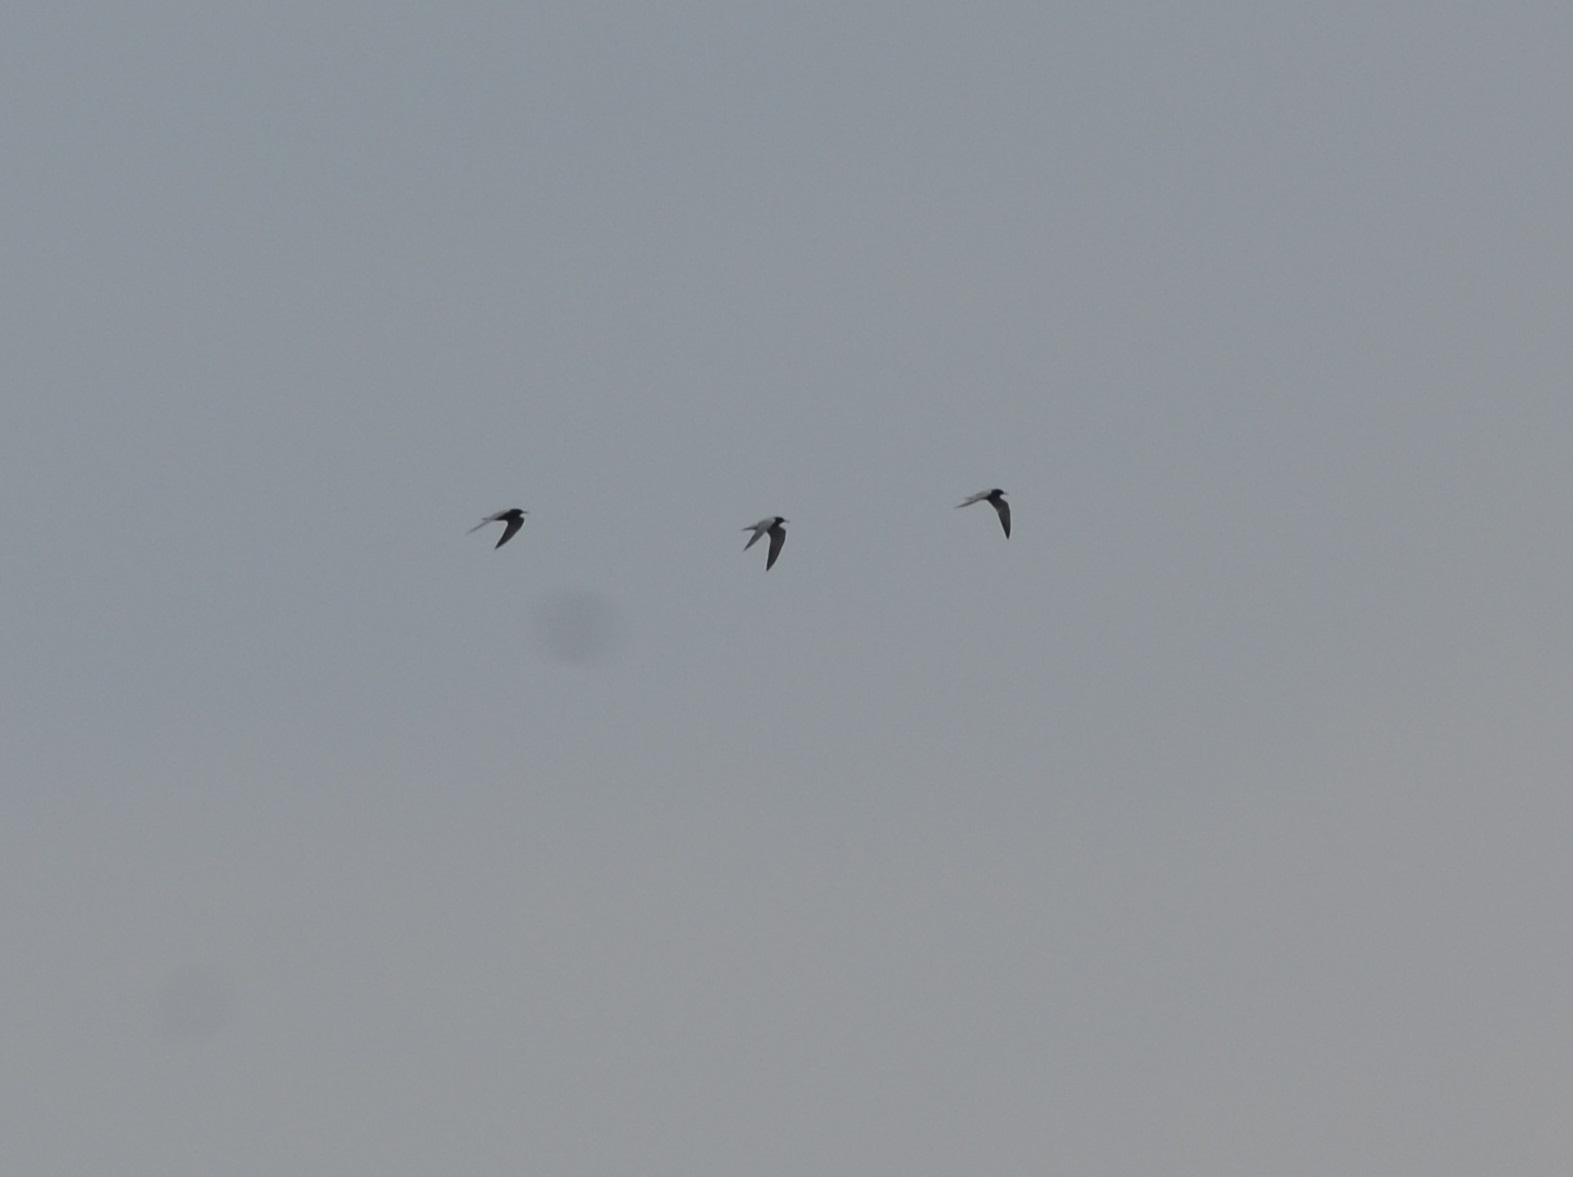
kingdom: Animalia
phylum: Chordata
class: Aves
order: Charadriiformes
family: Laridae
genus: Chlidonias
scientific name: Chlidonias niger
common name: Black tern
